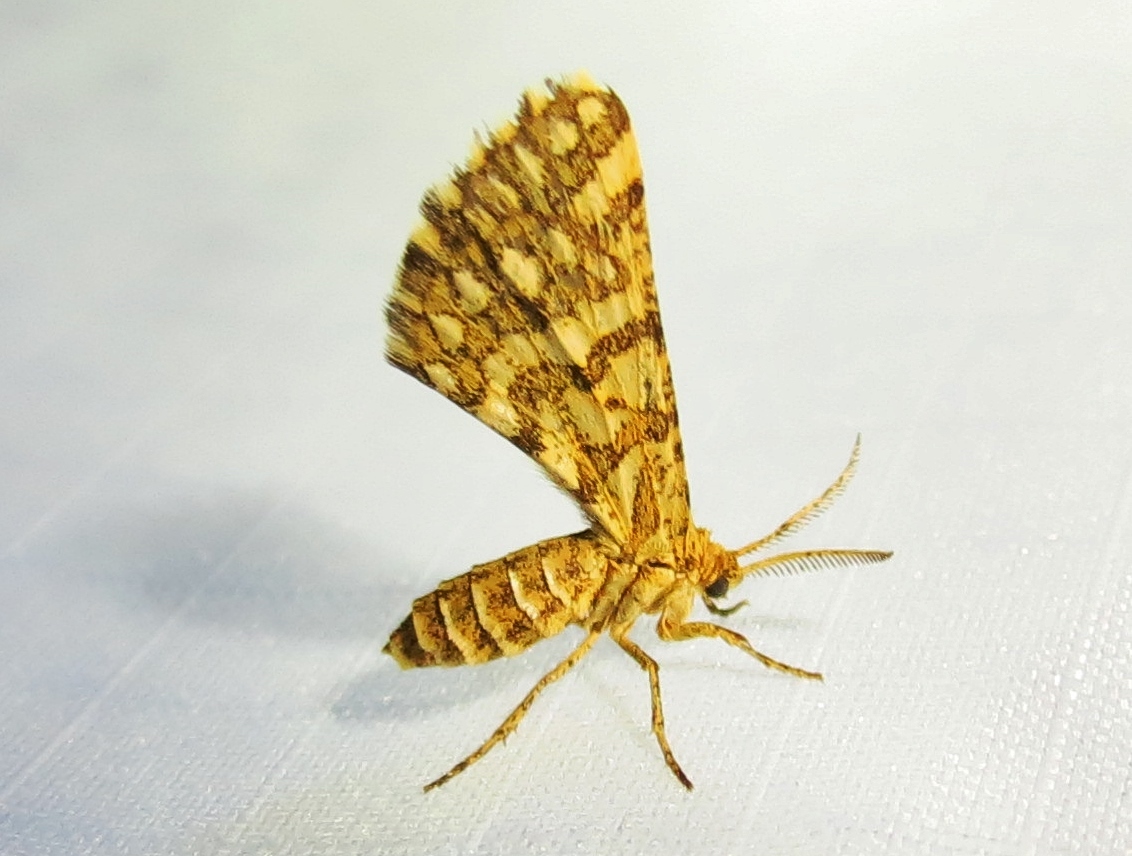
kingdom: Animalia
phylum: Arthropoda
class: Insecta
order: Lepidoptera
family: Geometridae
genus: Narraga
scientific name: Narraga fimetaria
